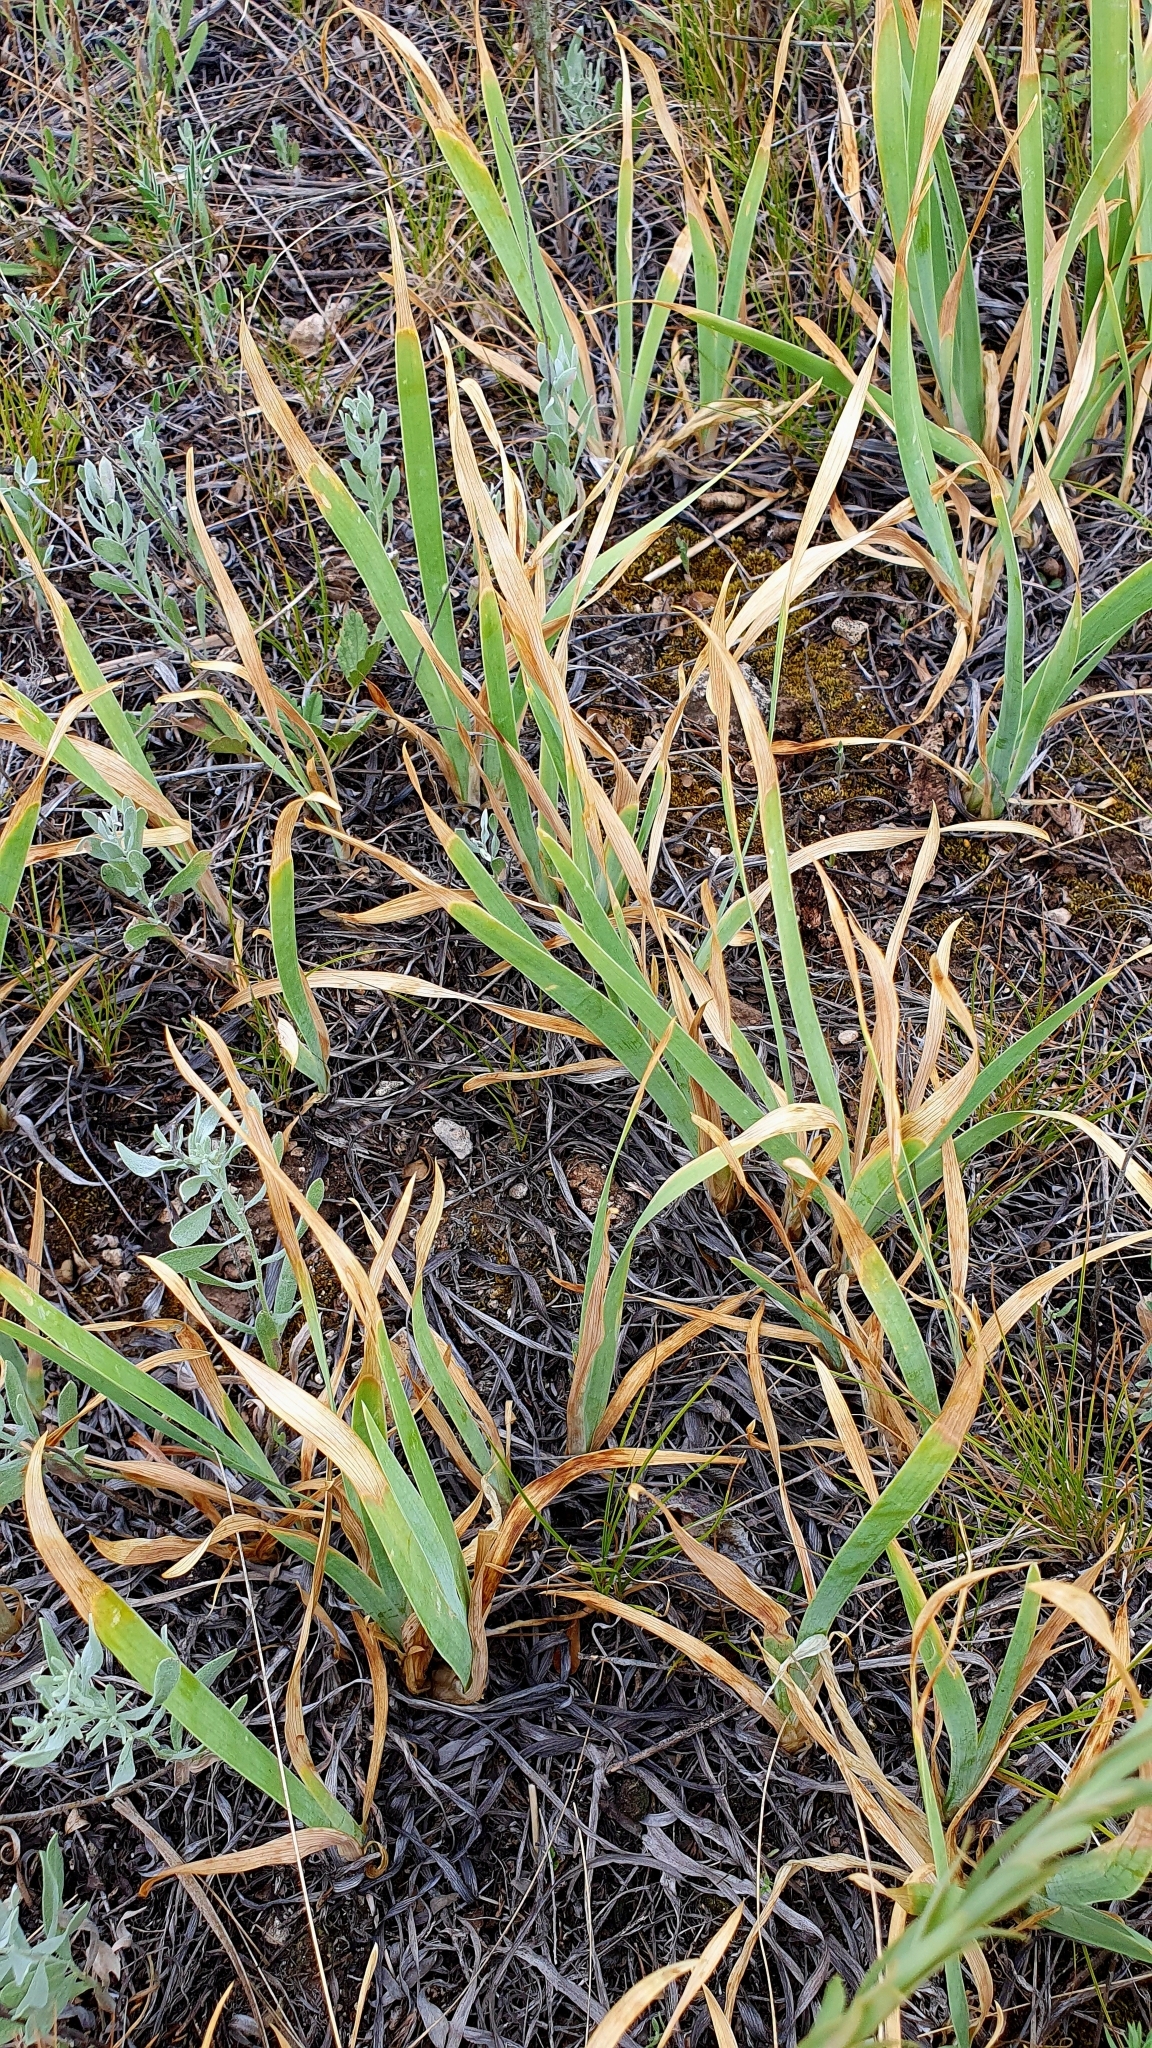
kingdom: Plantae
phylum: Tracheophyta
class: Liliopsida
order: Asparagales
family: Iridaceae
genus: Iris
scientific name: Iris pumila
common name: Dwarf iris
